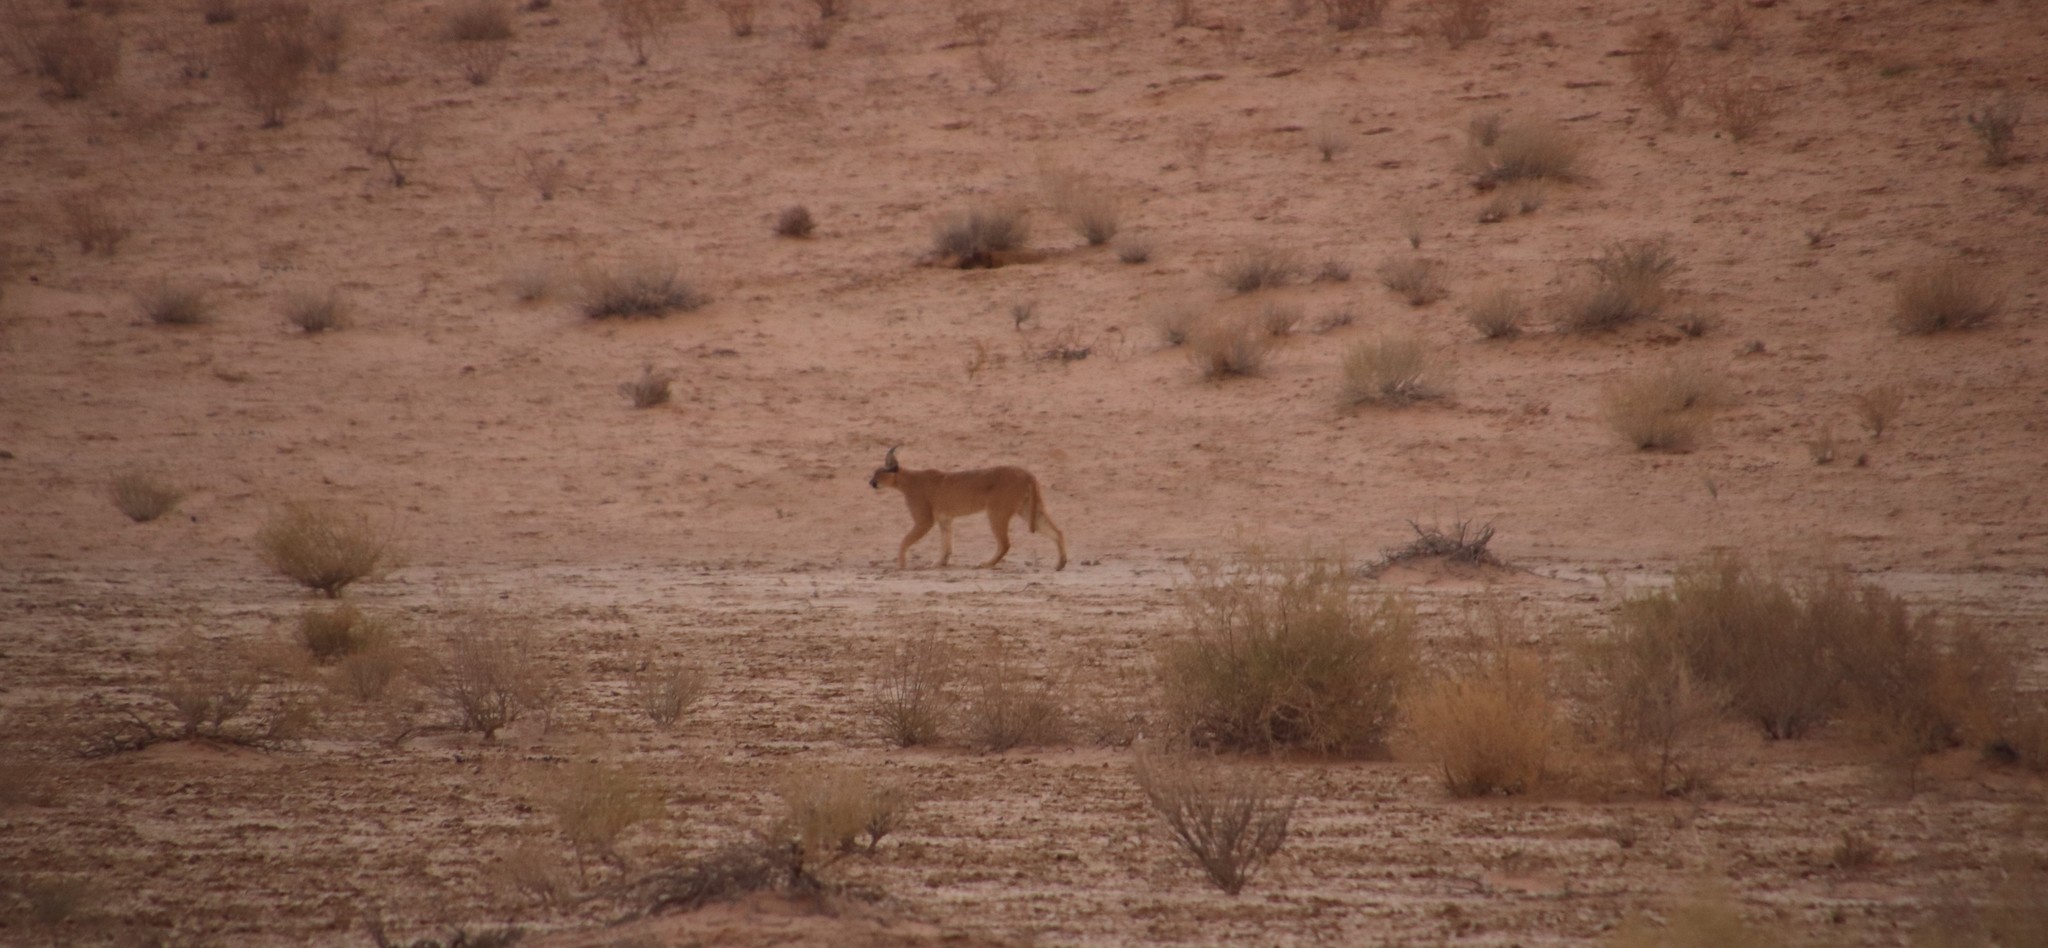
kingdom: Animalia
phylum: Chordata
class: Mammalia
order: Carnivora
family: Felidae
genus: Caracal
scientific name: Caracal caracal
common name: Caracal
